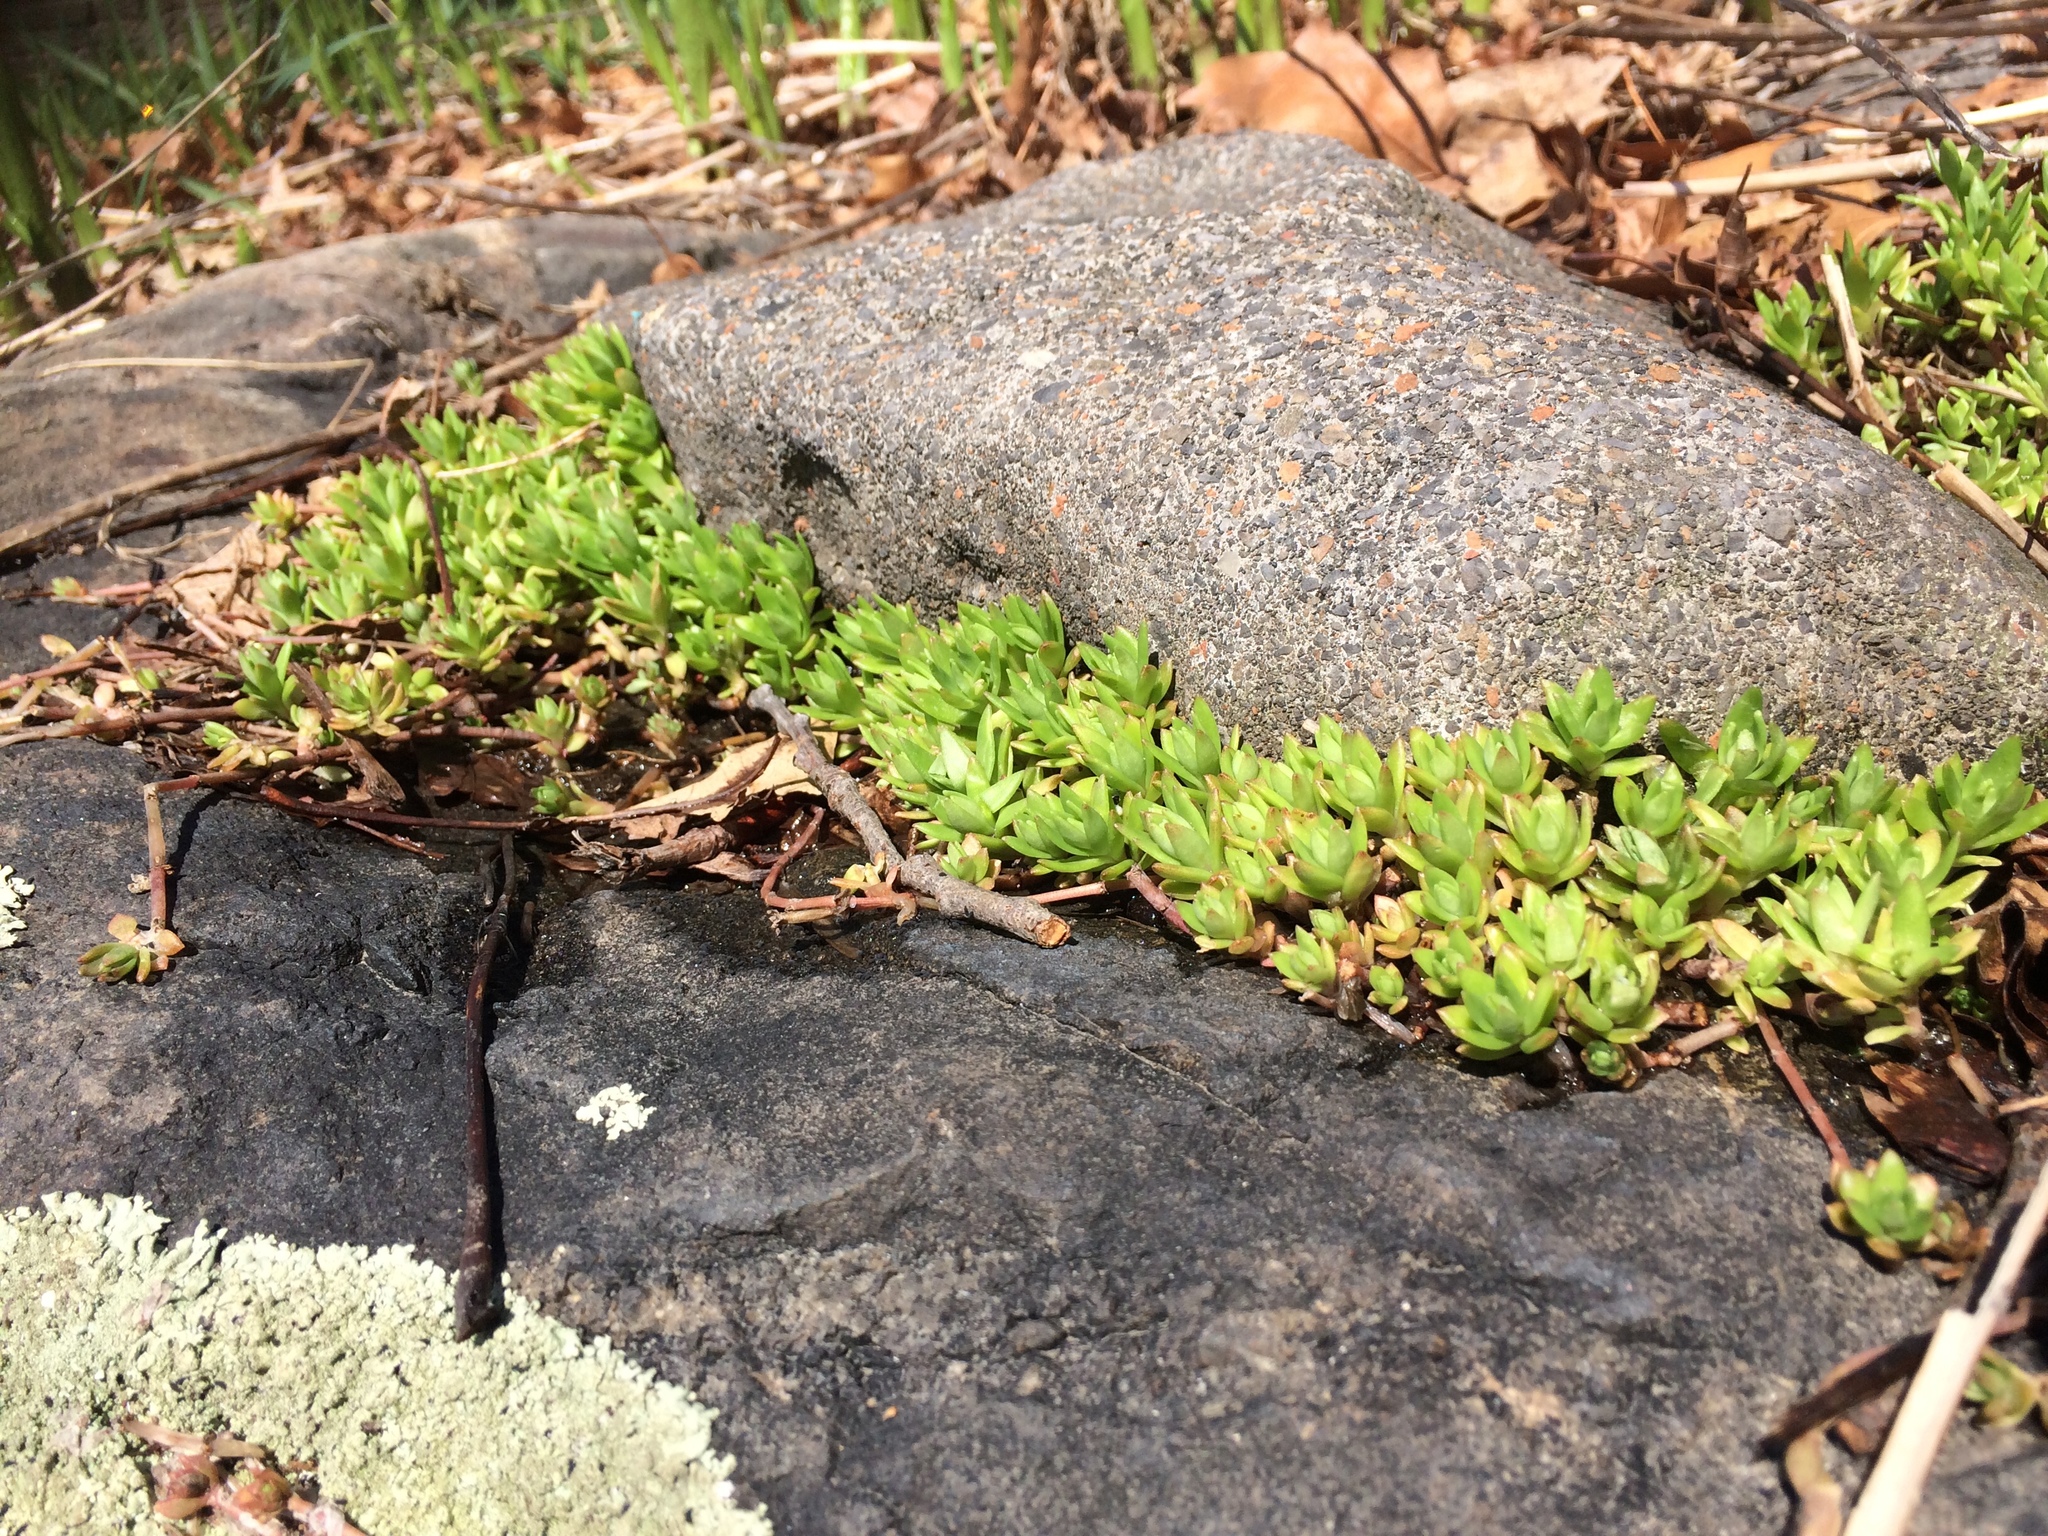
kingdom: Plantae
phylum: Tracheophyta
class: Magnoliopsida
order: Saxifragales
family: Crassulaceae
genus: Sedum
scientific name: Sedum sarmentosum
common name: Stringy stonecrop
